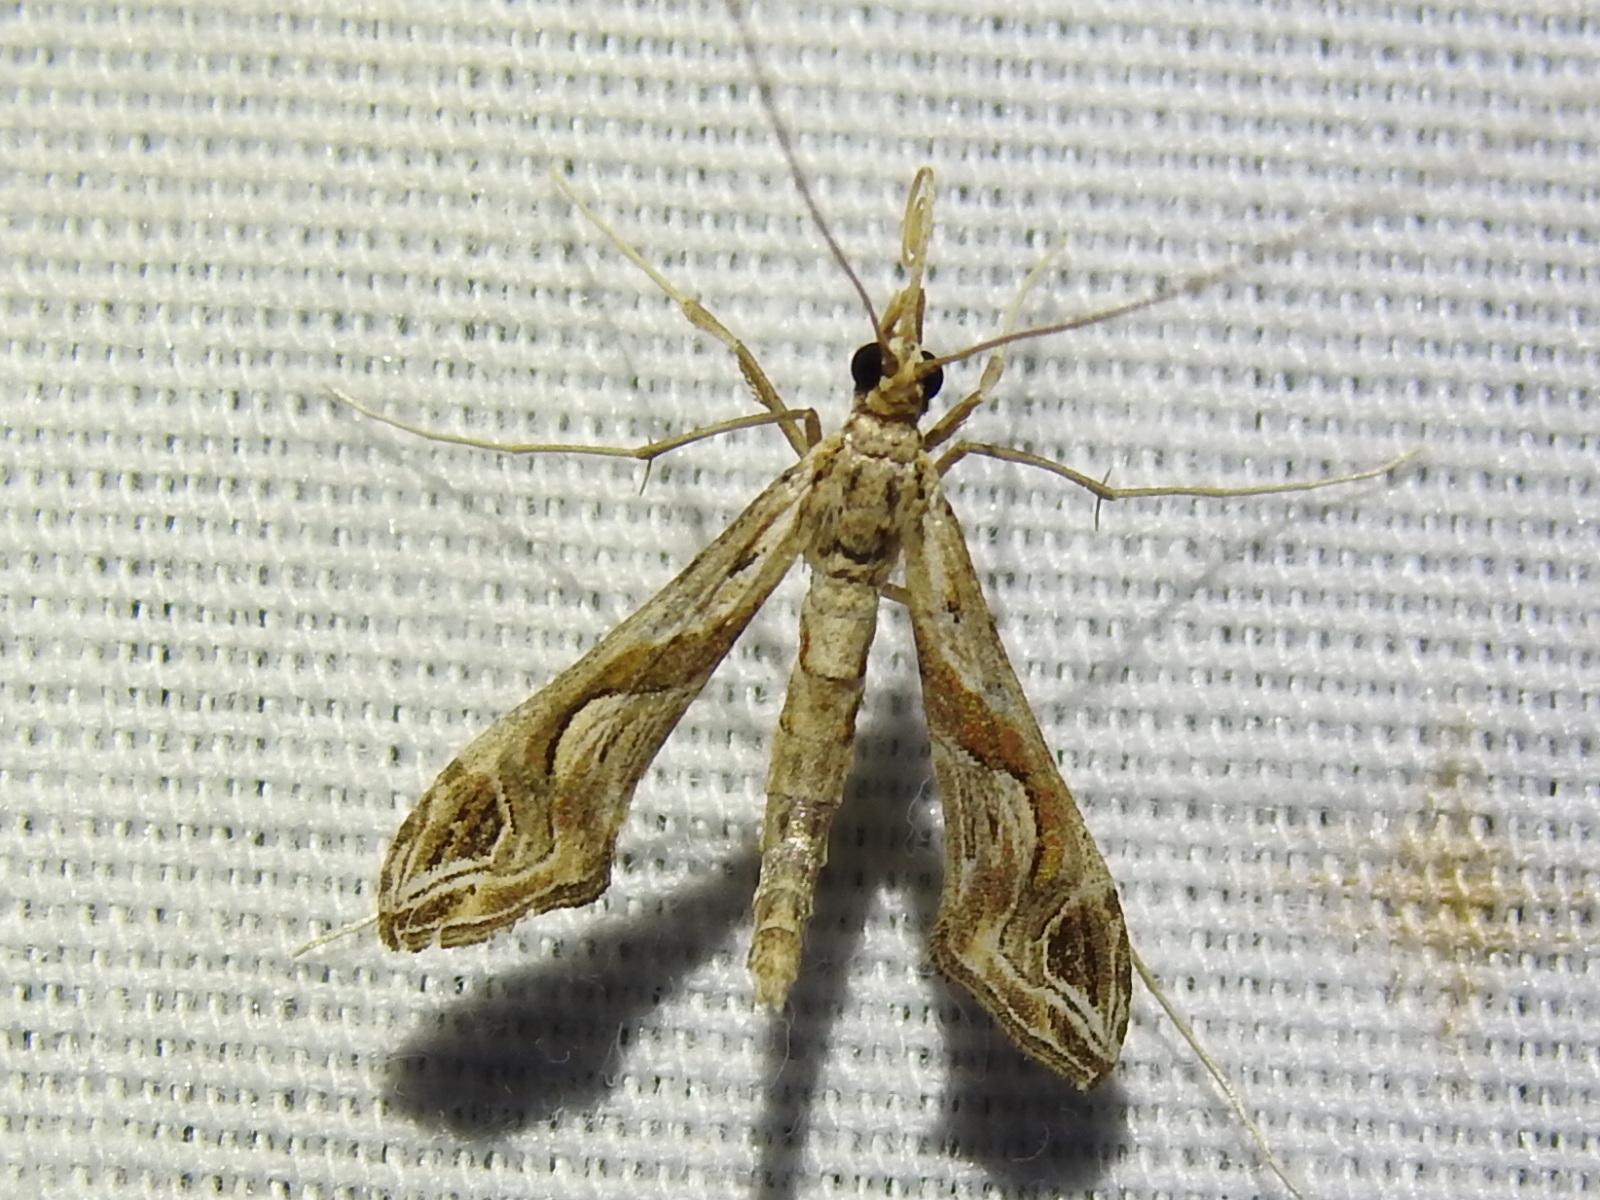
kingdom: Animalia
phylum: Arthropoda
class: Insecta
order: Lepidoptera
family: Crambidae
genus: Lineodes
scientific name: Lineodes integra
